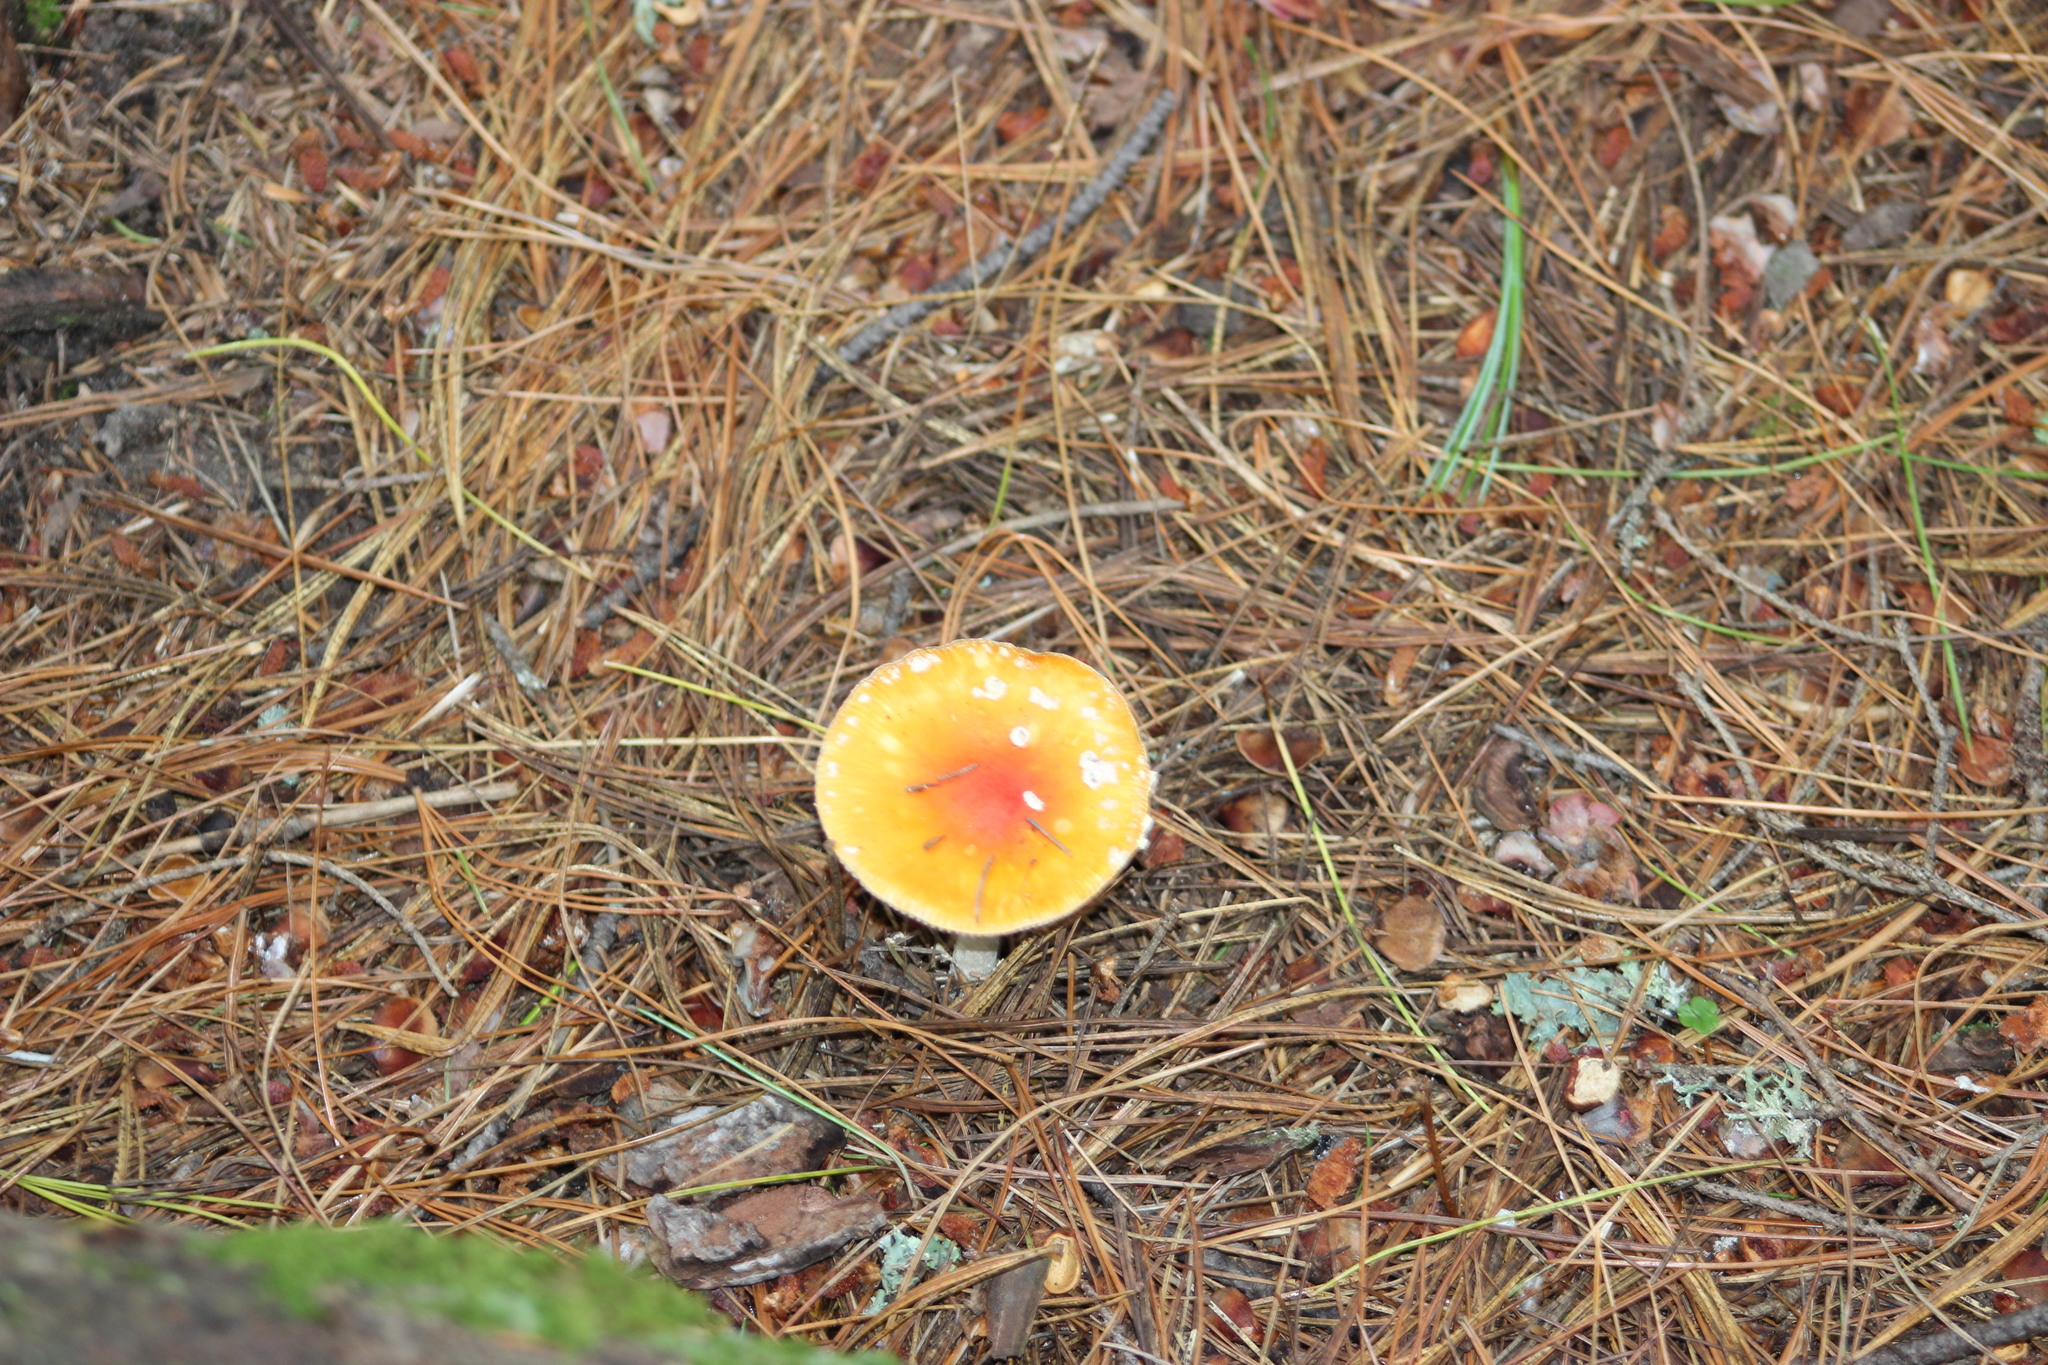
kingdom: Fungi
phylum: Basidiomycota
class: Agaricomycetes
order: Agaricales
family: Amanitaceae
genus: Amanita
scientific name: Amanita muscaria
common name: Fly agaric
